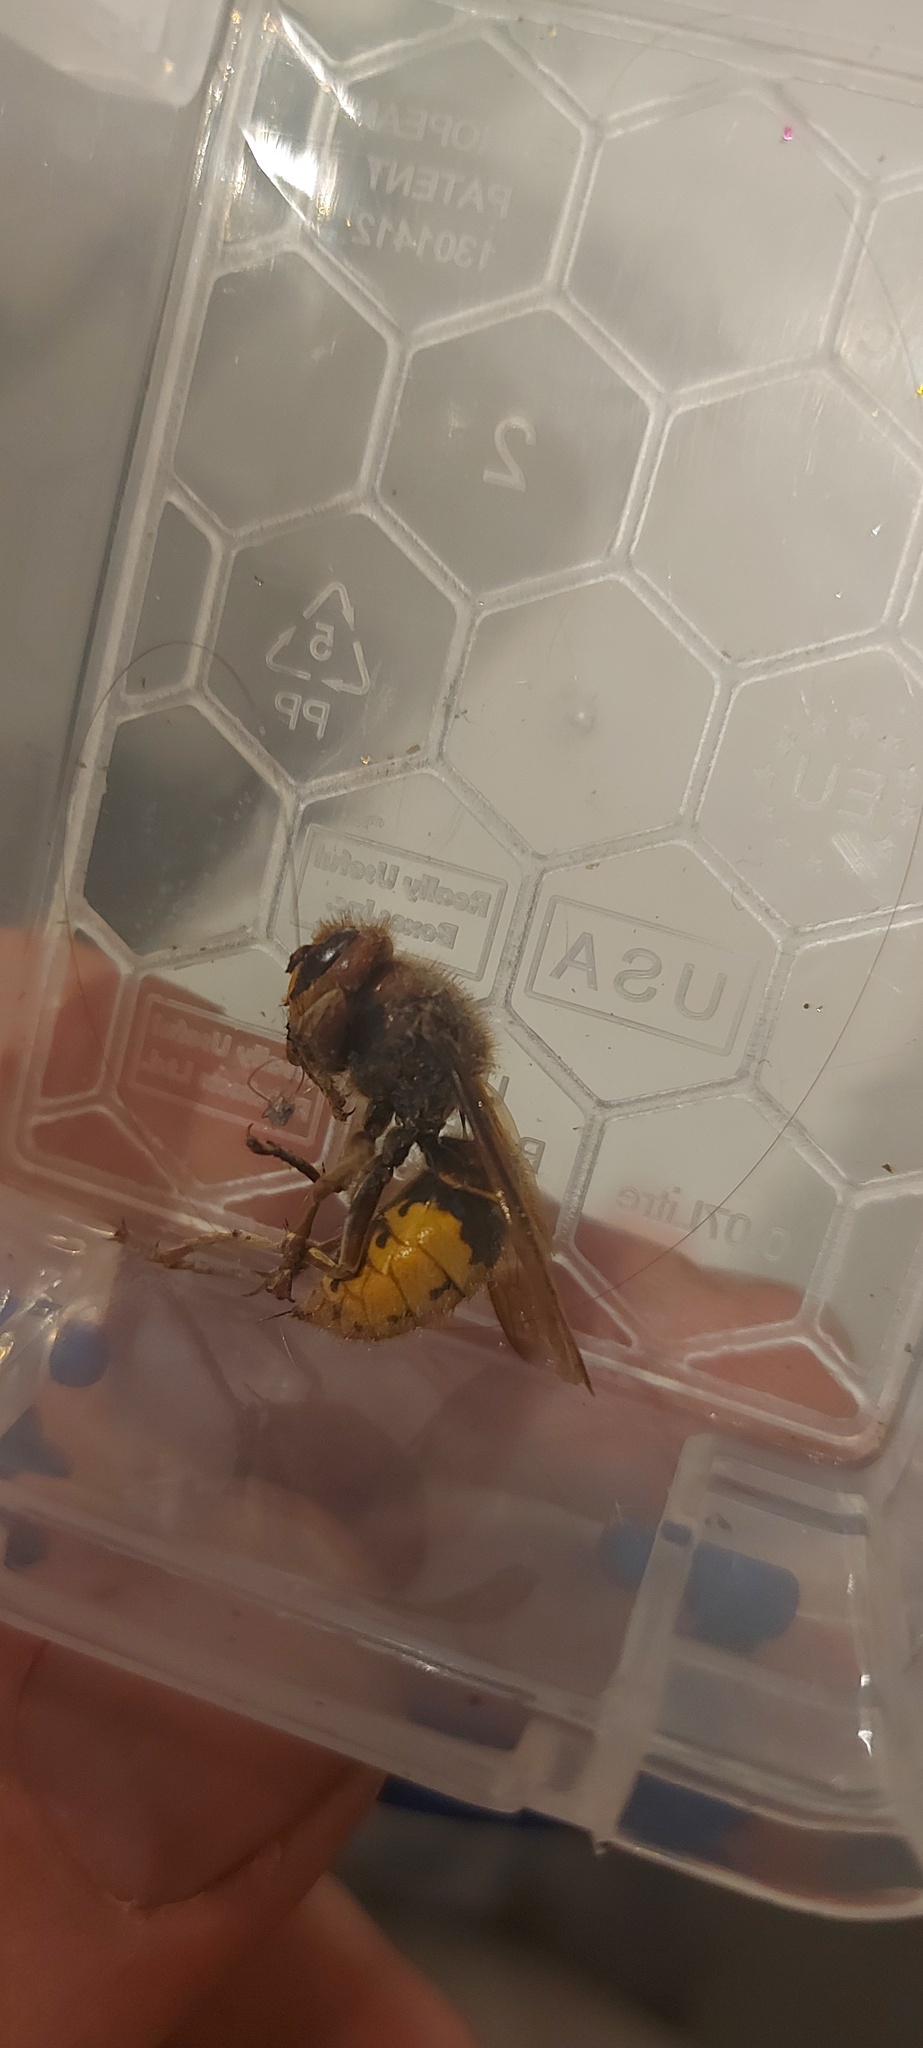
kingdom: Animalia
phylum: Arthropoda
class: Insecta
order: Hymenoptera
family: Vespidae
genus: Vespa
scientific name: Vespa crabro
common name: Hornet
